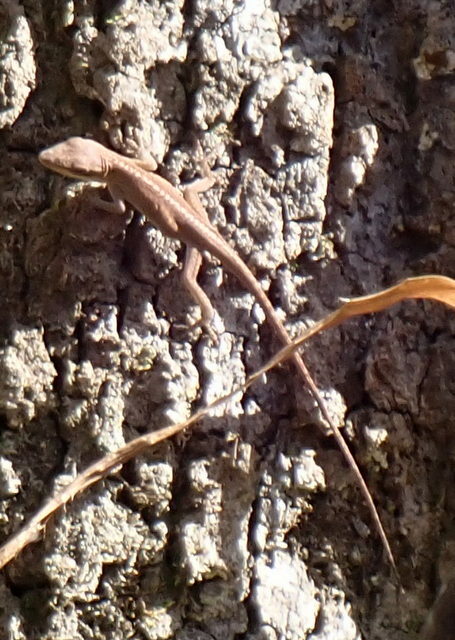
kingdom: Animalia
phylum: Chordata
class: Squamata
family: Dactyloidae
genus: Anolis
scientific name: Anolis carolinensis
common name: Green anole
